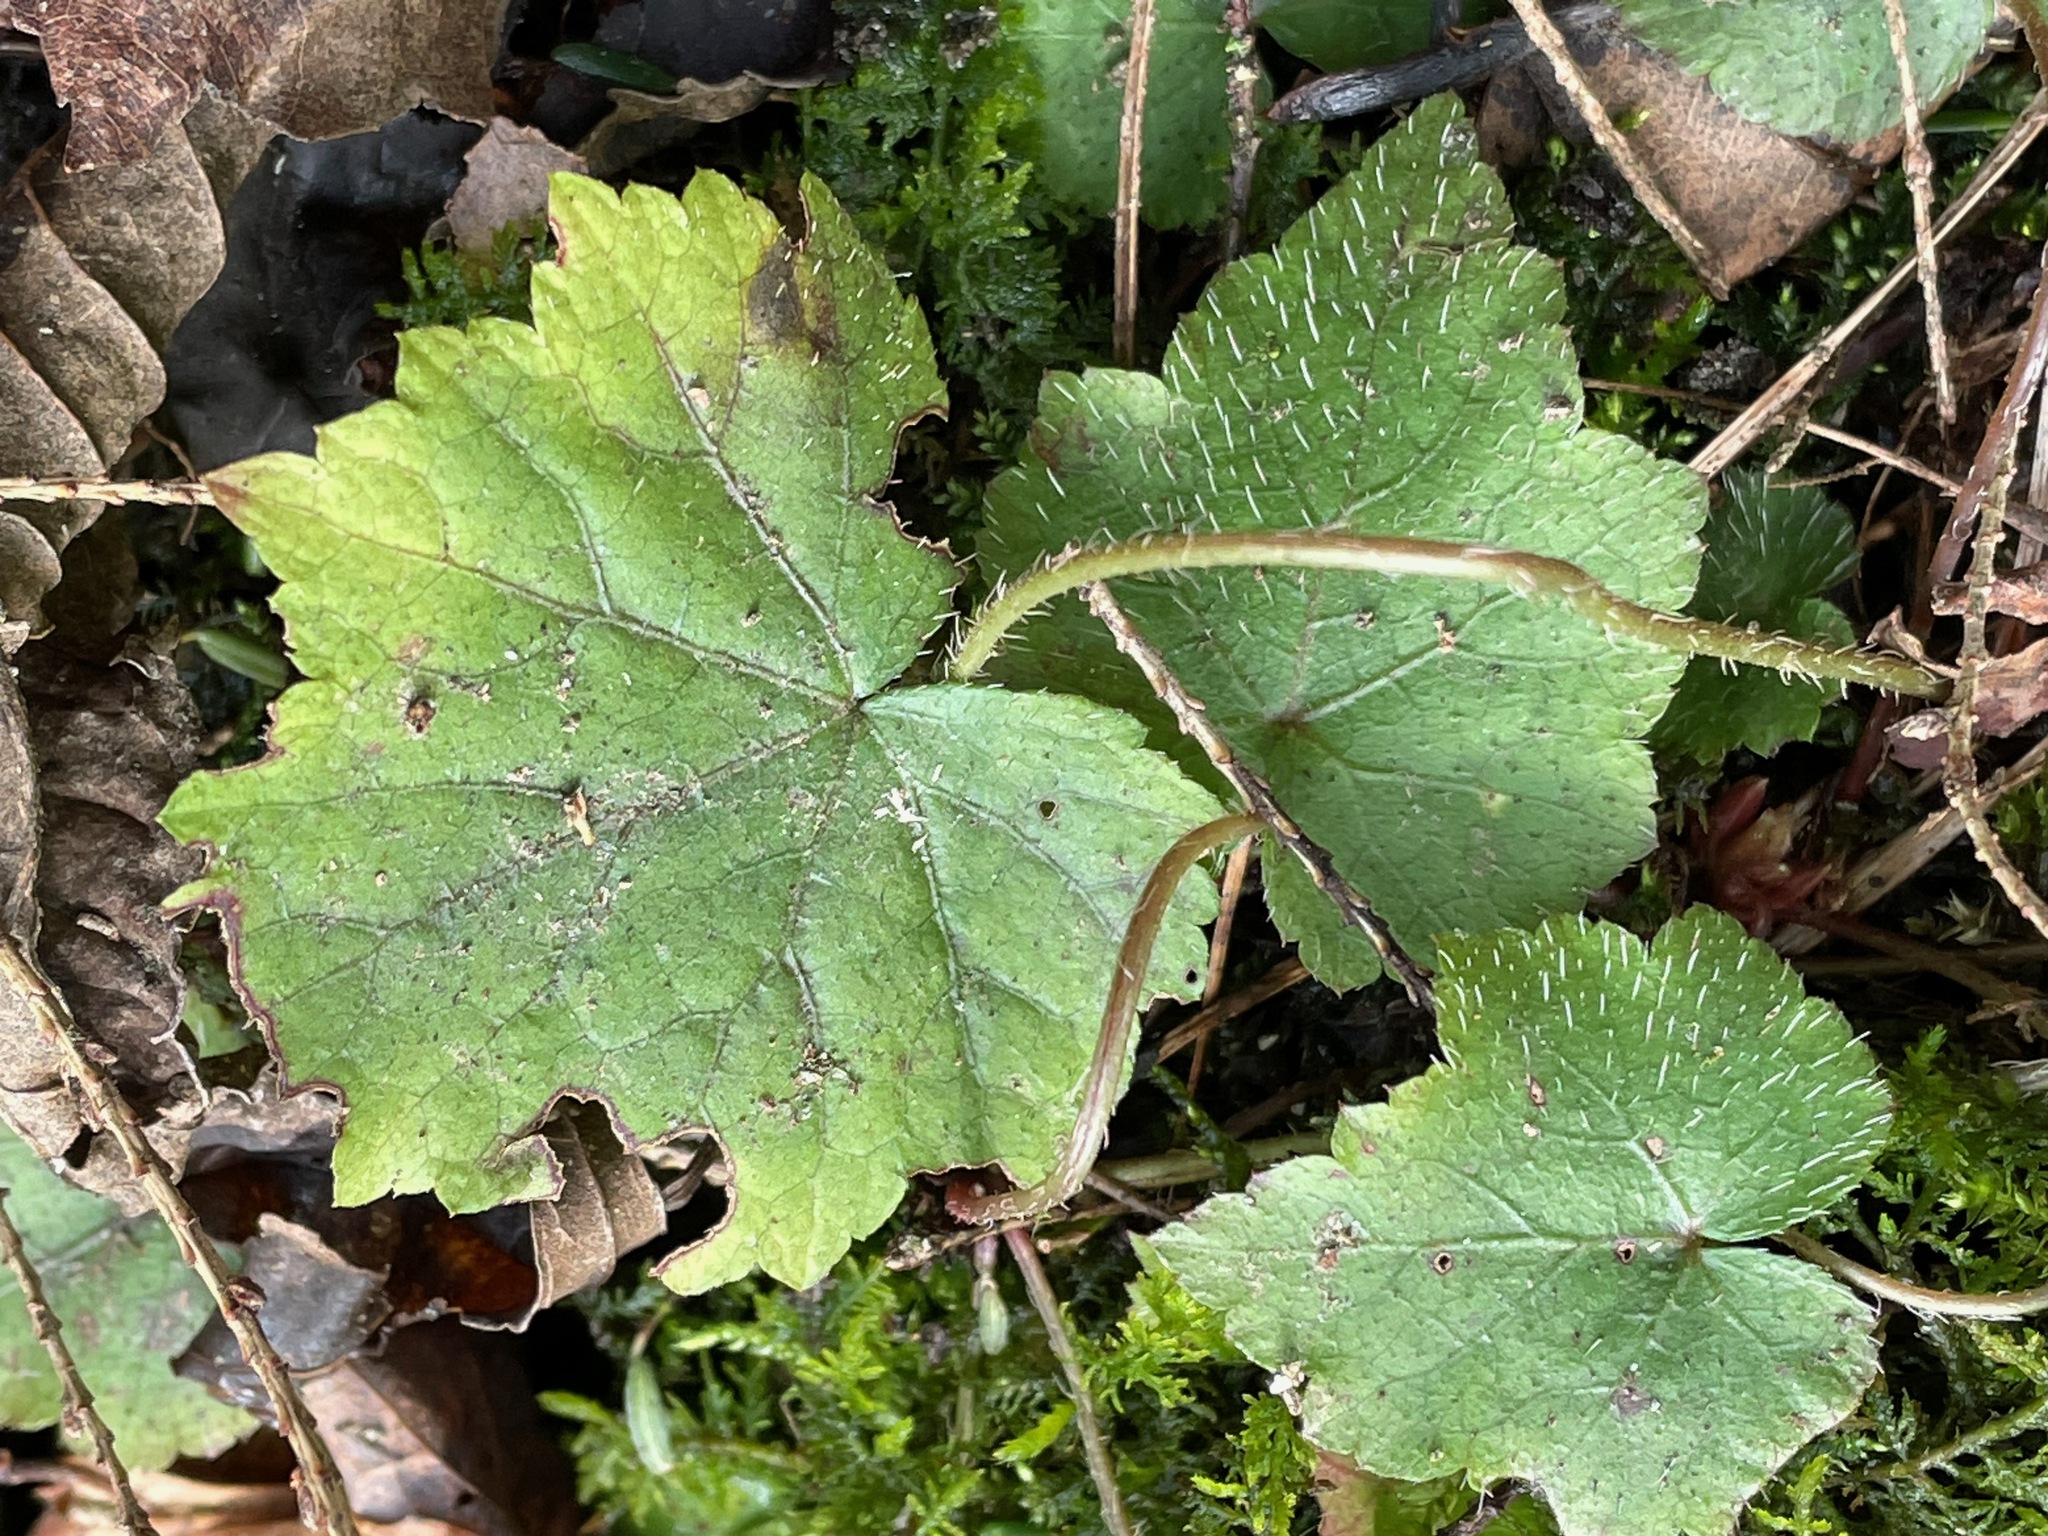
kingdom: Plantae
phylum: Tracheophyta
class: Magnoliopsida
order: Saxifragales
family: Saxifragaceae
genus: Mitella
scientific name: Mitella diphylla
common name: Coolwort
